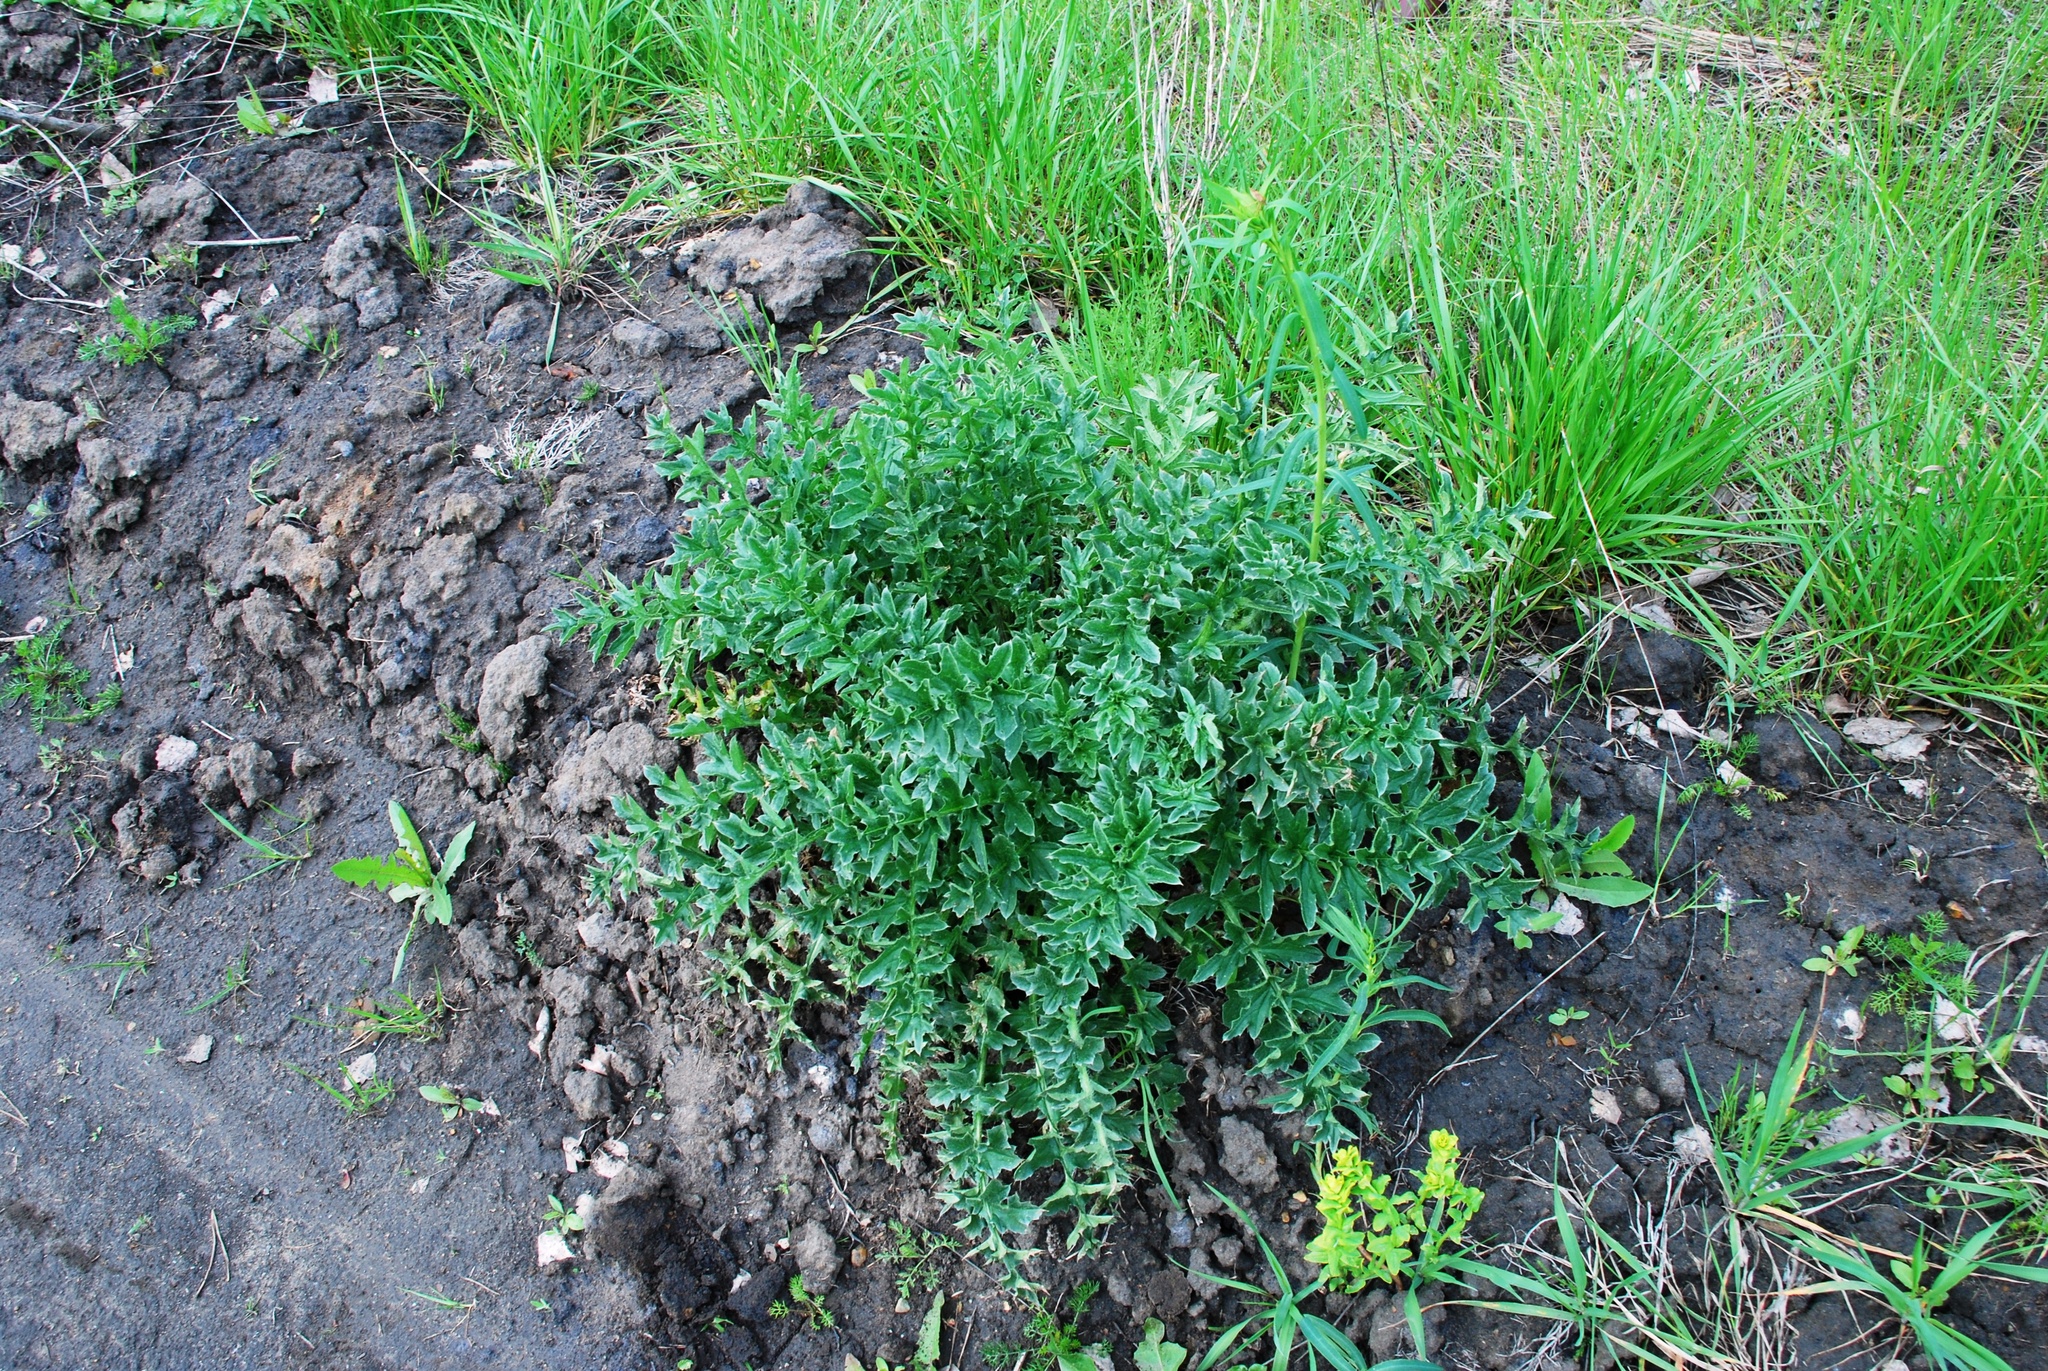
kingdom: Plantae
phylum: Tracheophyta
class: Magnoliopsida
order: Asterales
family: Asteraceae
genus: Carduus
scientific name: Carduus acanthoides
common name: Plumeless thistle
